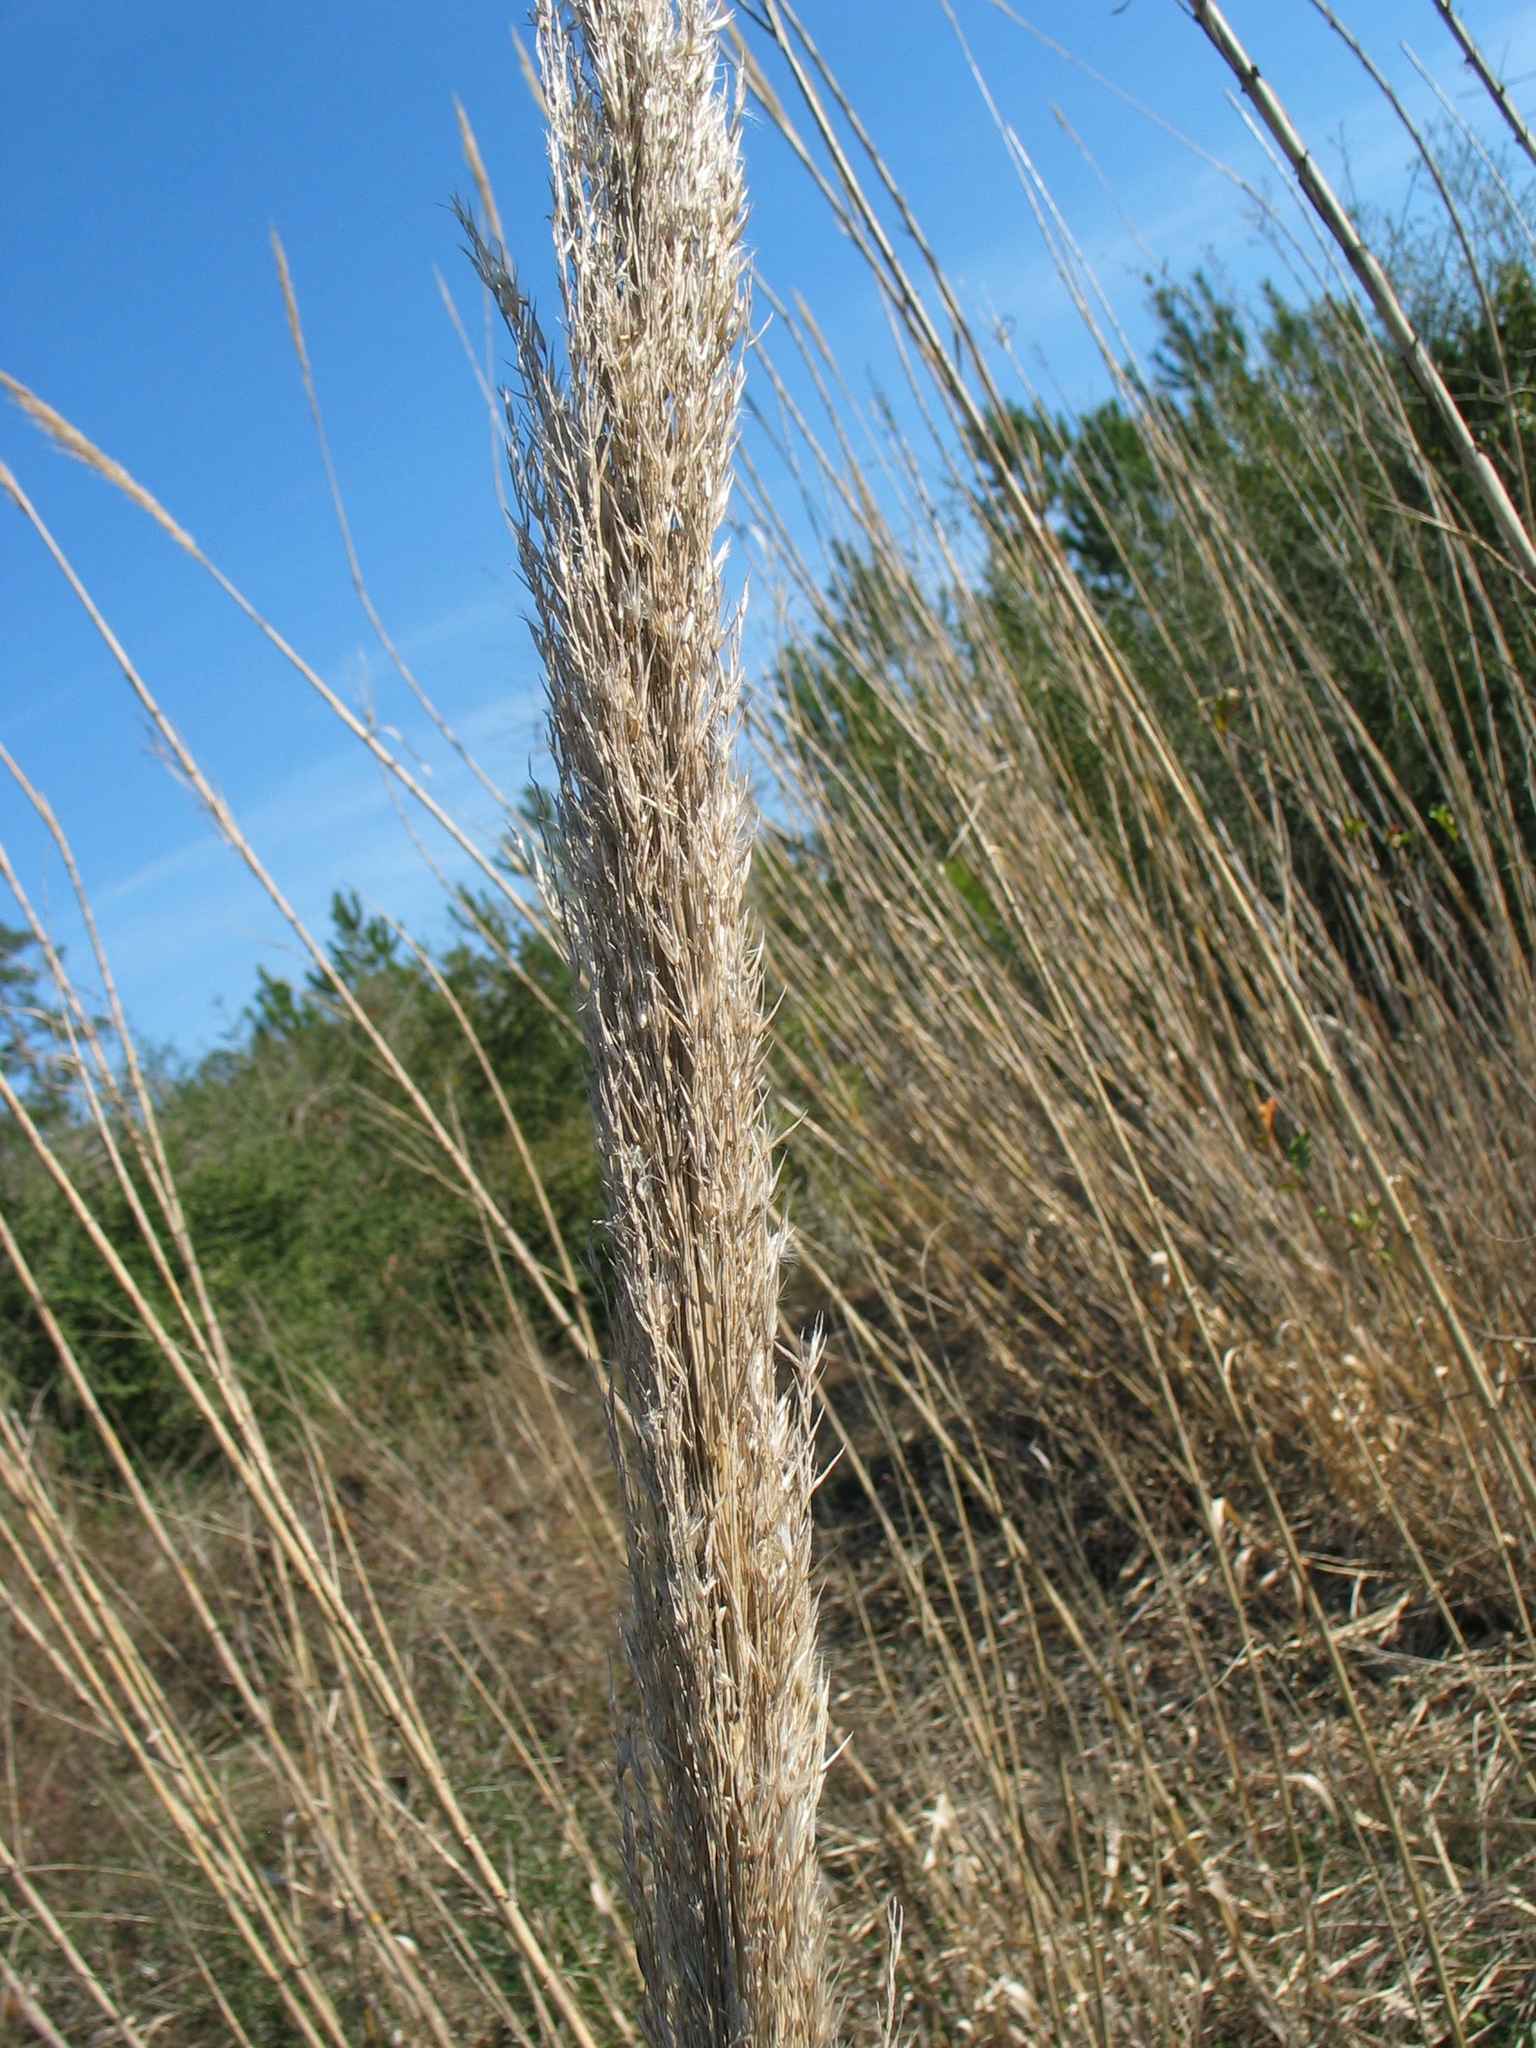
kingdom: Plantae
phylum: Tracheophyta
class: Liliopsida
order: Poales
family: Poaceae
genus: Arundo
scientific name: Arundo donax
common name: Giant reed
